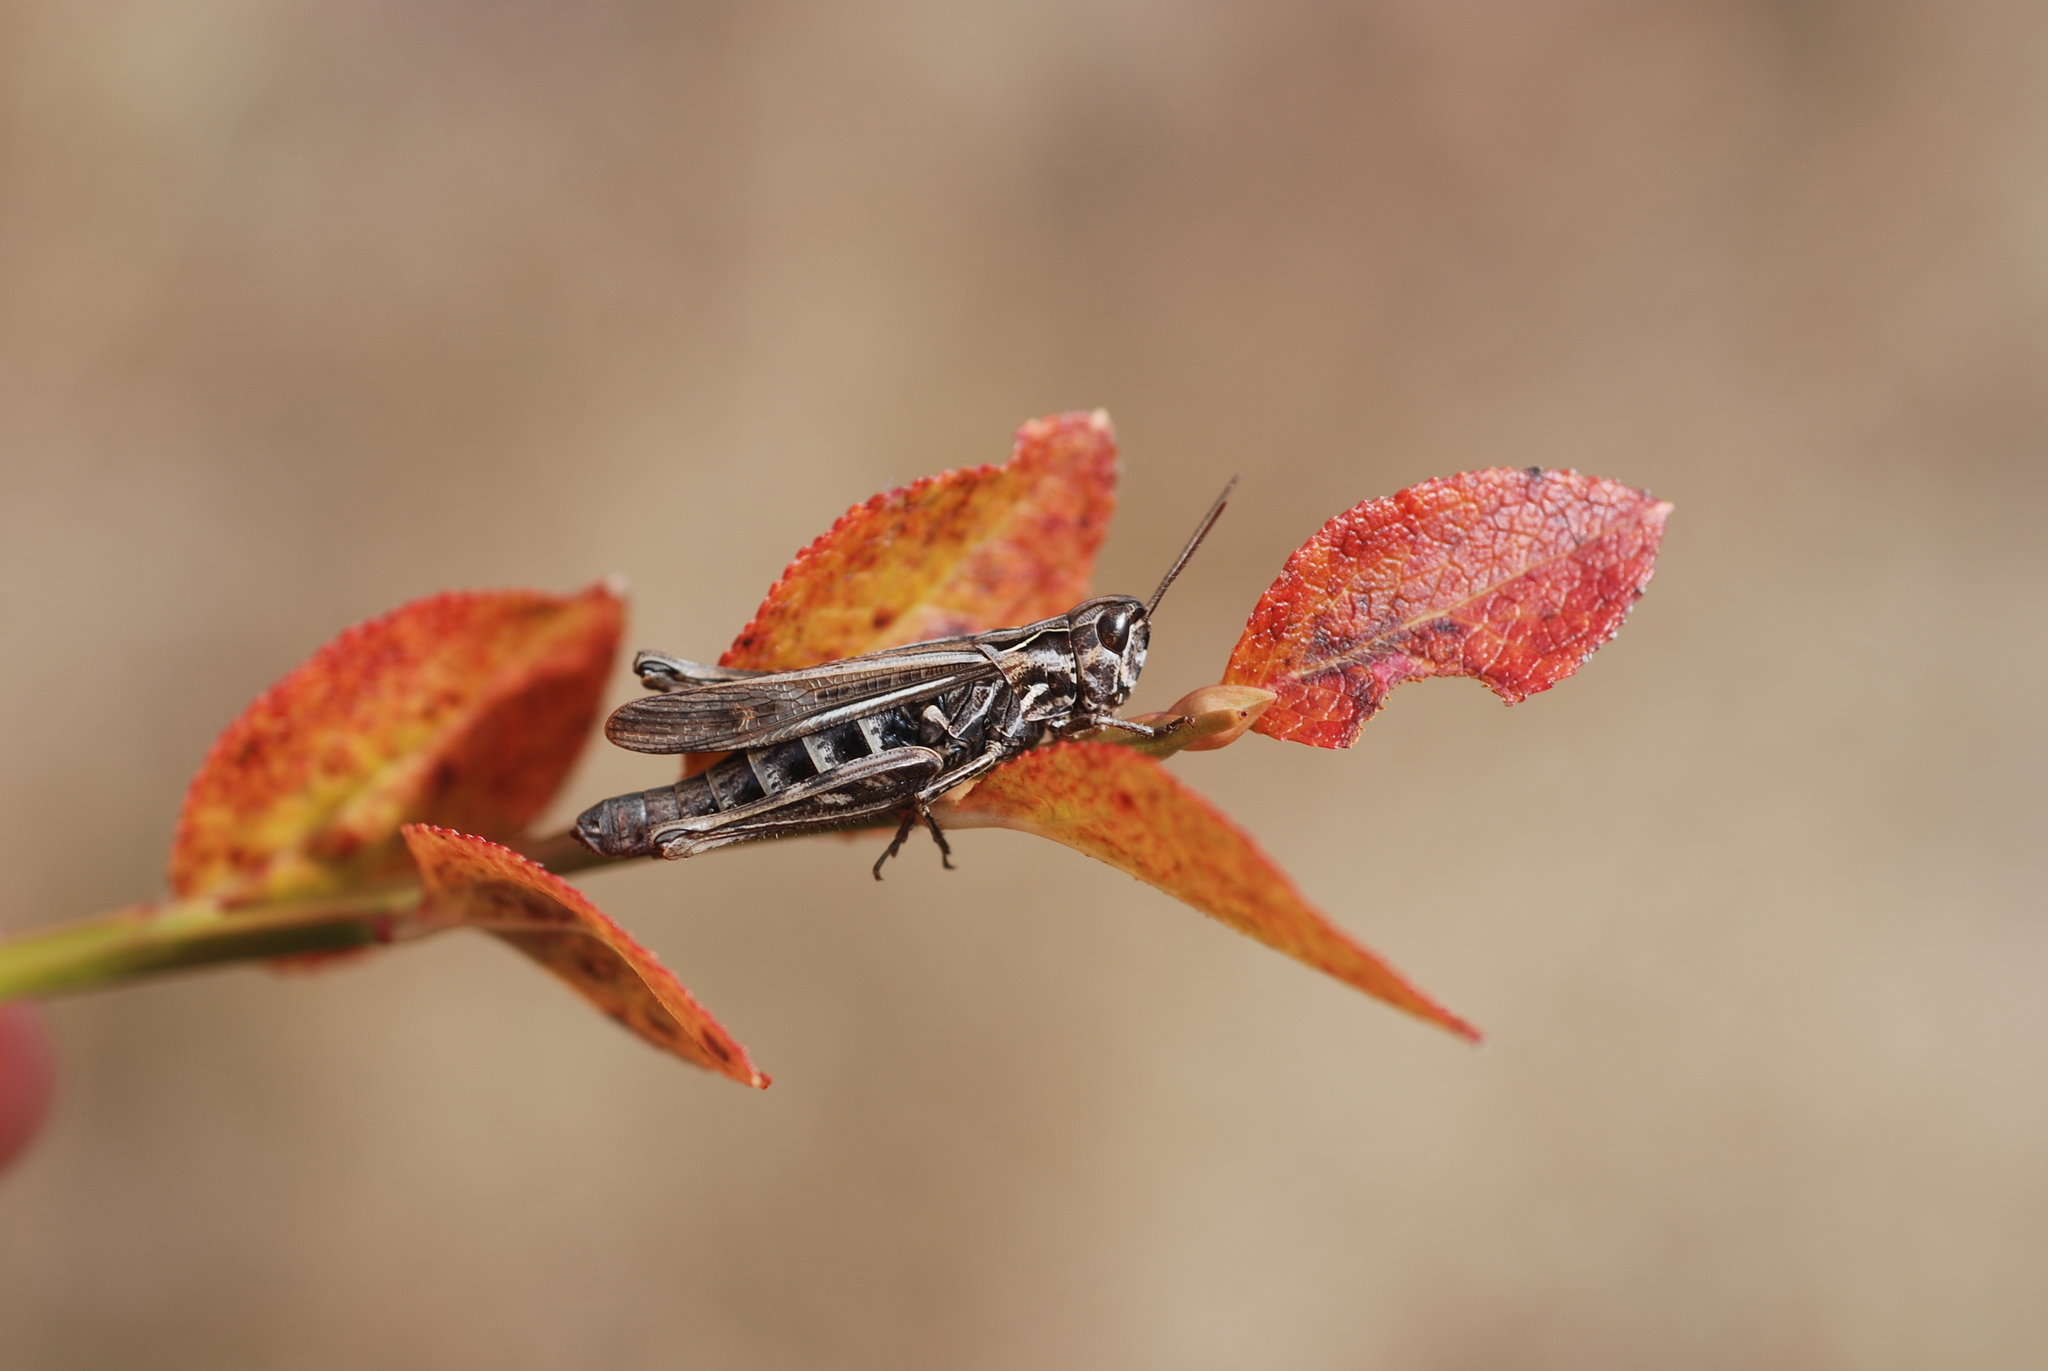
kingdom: Animalia
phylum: Arthropoda
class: Insecta
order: Orthoptera
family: Acrididae
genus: Chorthippus
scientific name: Chorthippus biguttulus
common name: Bow-winged grasshopper
